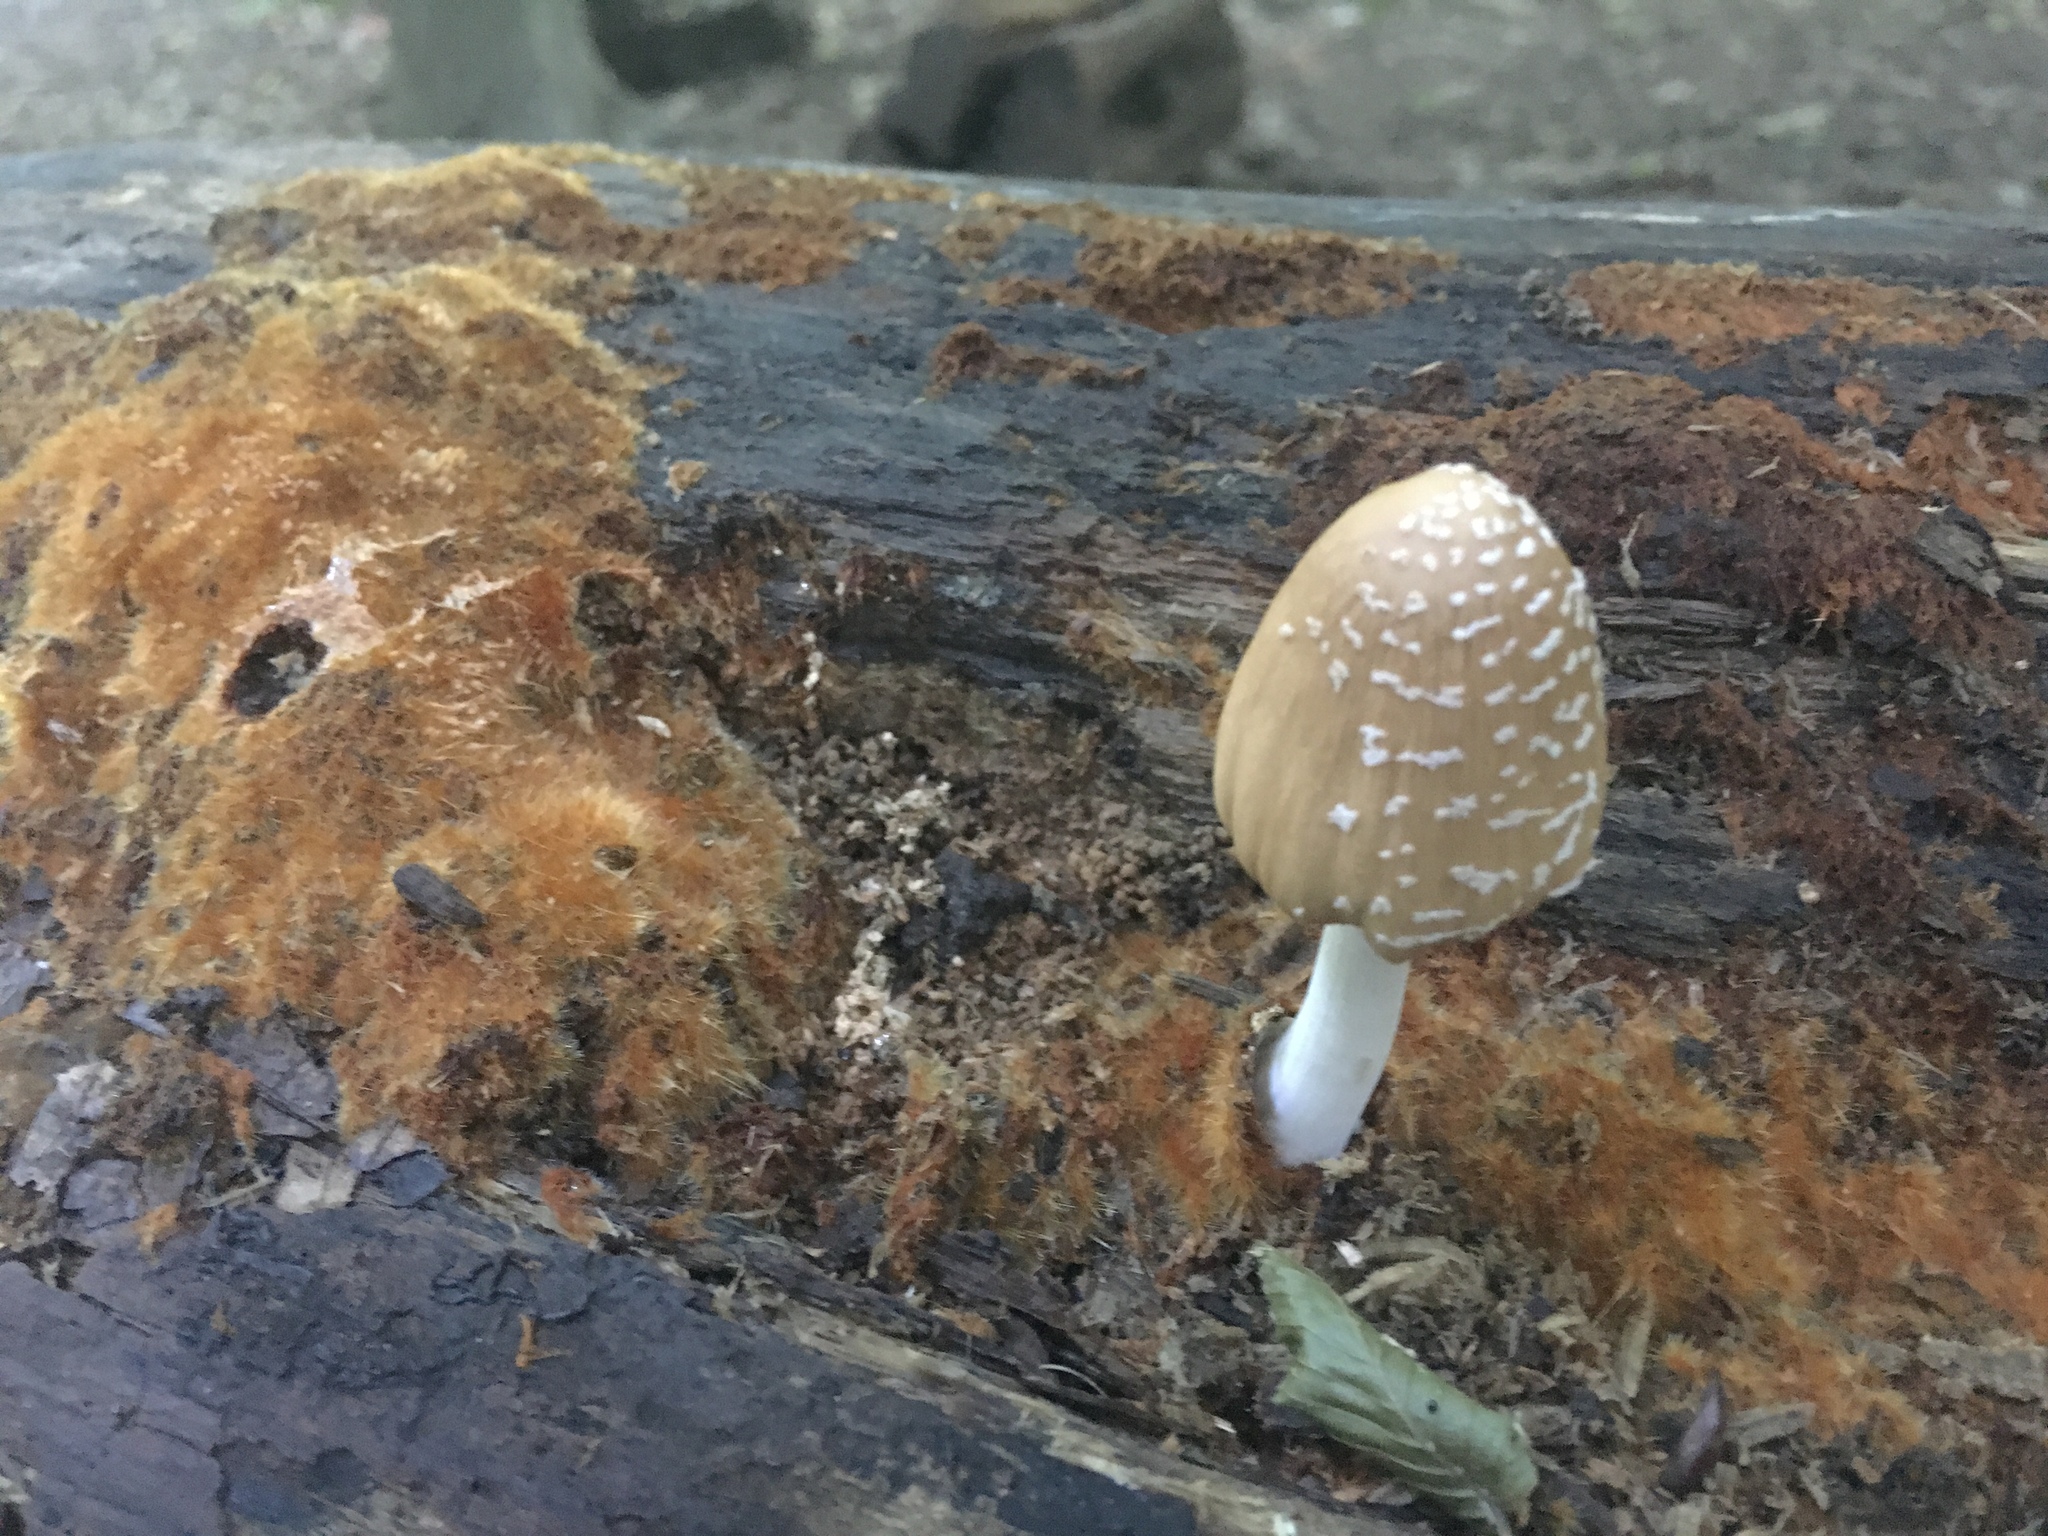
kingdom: Fungi
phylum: Basidiomycota
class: Agaricomycetes
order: Agaricales
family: Psathyrellaceae
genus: Coprinellus
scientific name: Coprinellus domesticus
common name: Firerug inkcap
